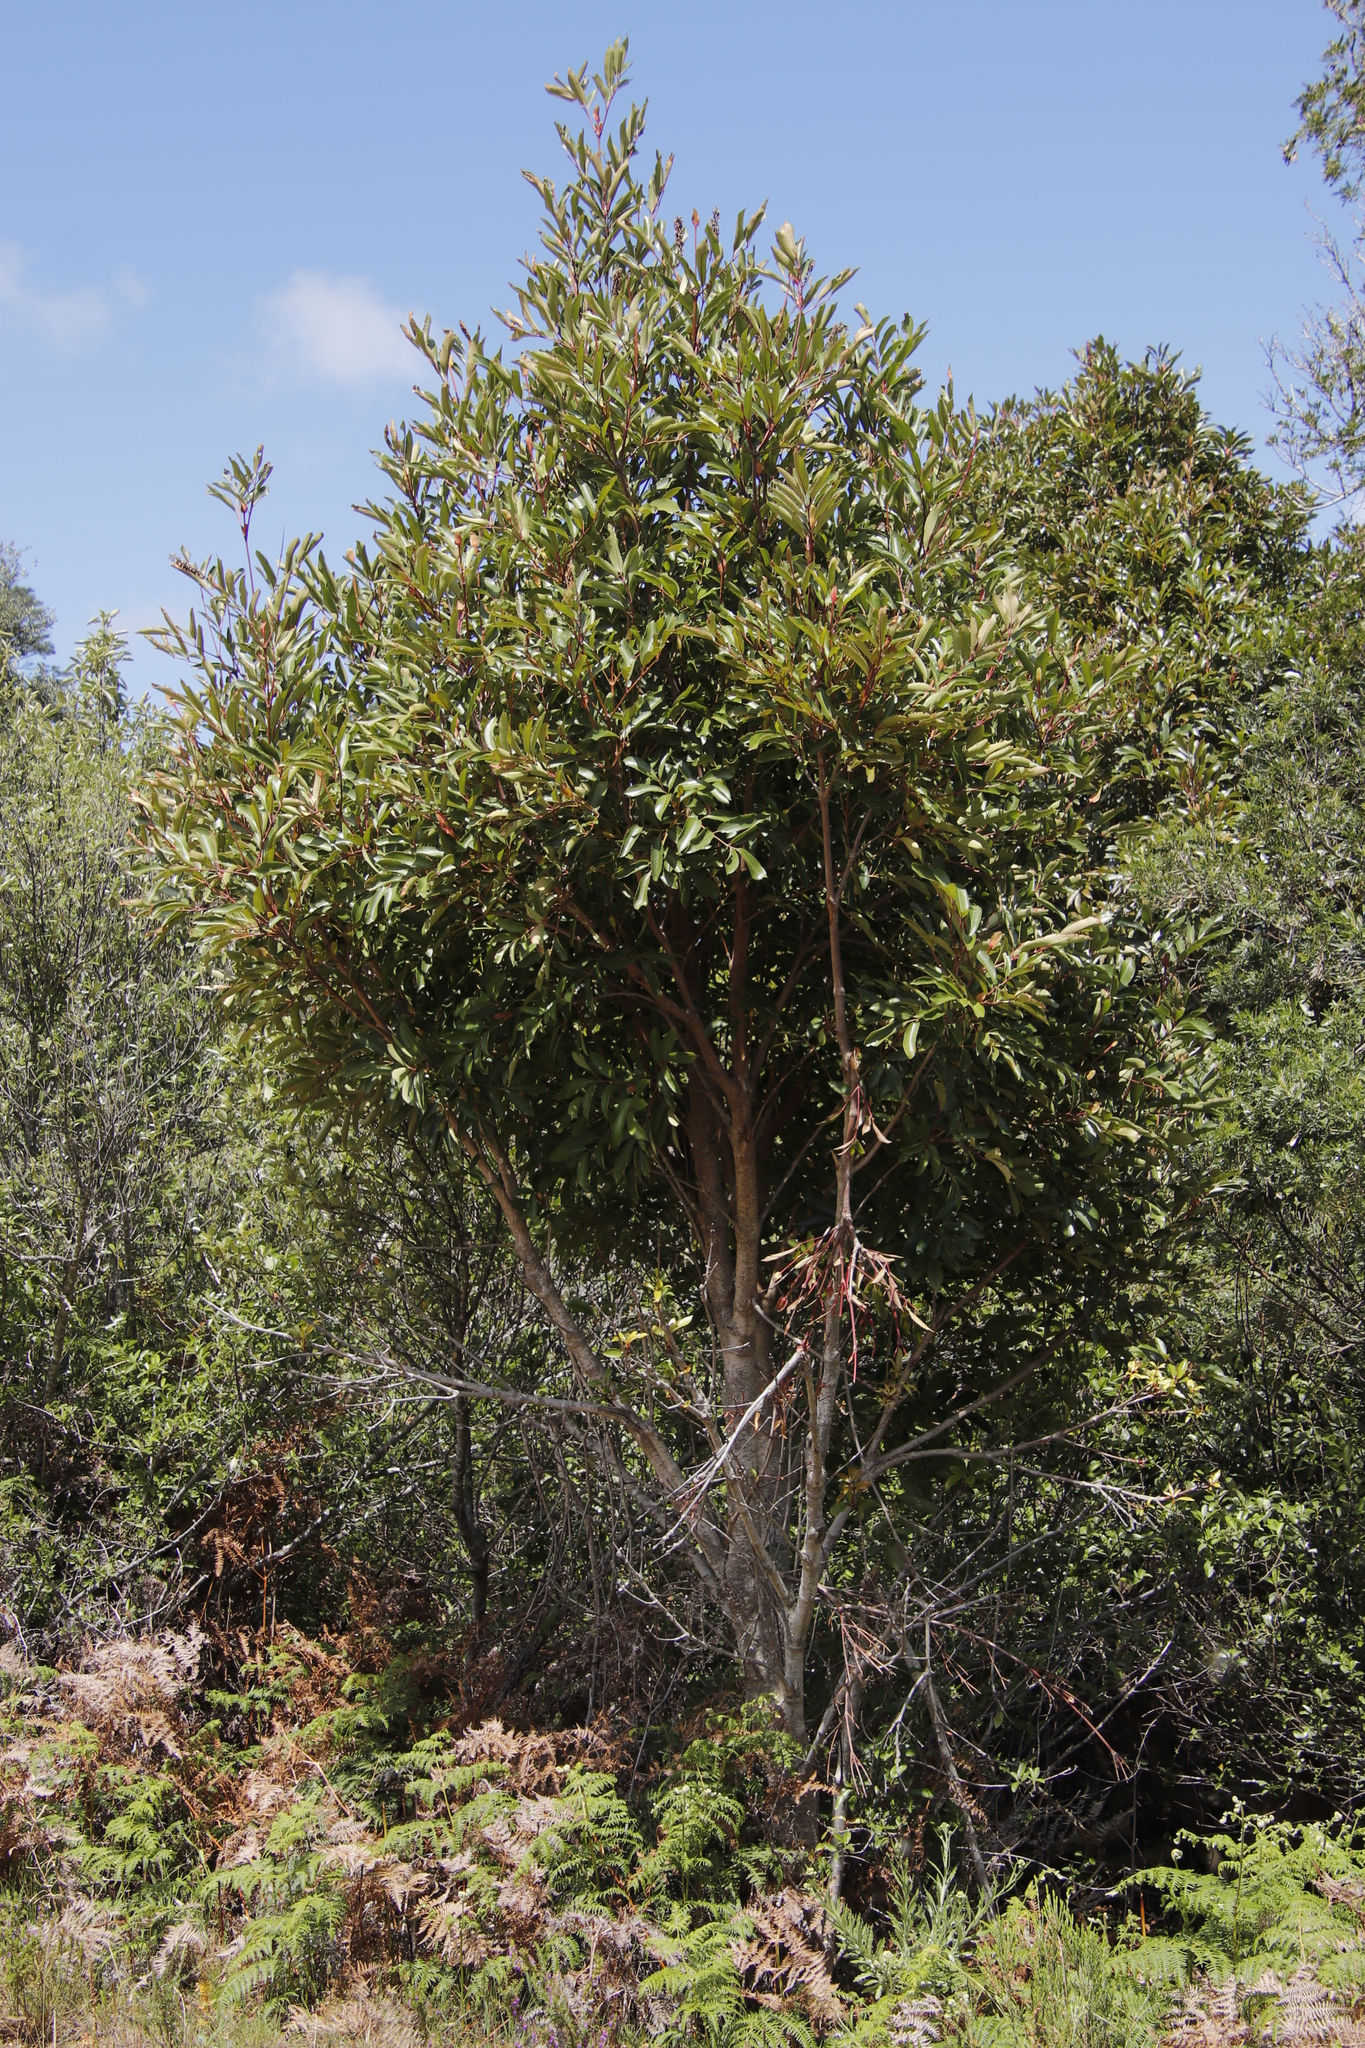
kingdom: Plantae
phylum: Tracheophyta
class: Magnoliopsida
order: Oxalidales
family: Cunoniaceae
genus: Cunonia
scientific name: Cunonia capensis
